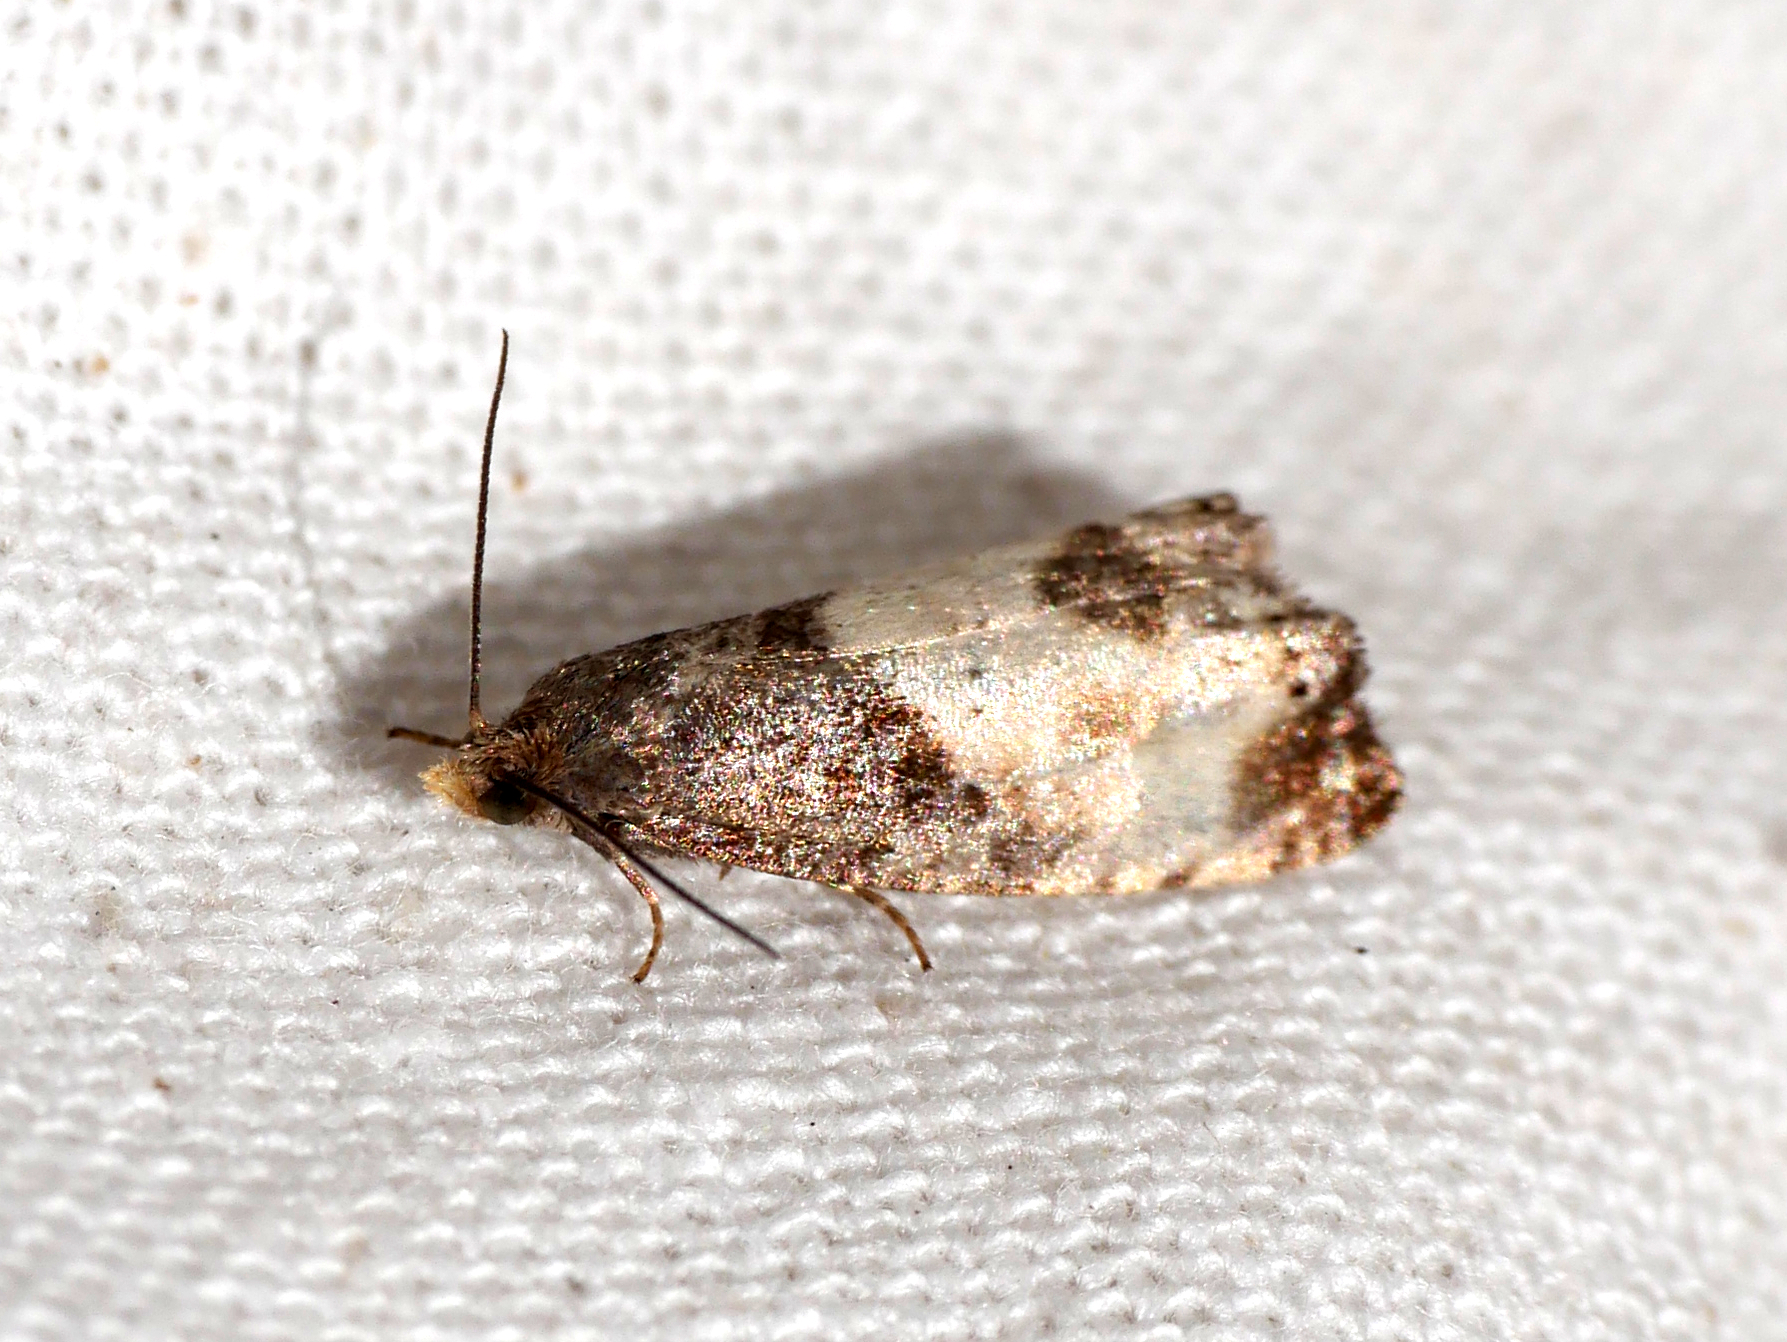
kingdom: Animalia
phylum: Arthropoda
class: Insecta
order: Lepidoptera
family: Tortricidae
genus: Notocelia
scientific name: Notocelia cynosbatella
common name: Yellow-faced bell moth
